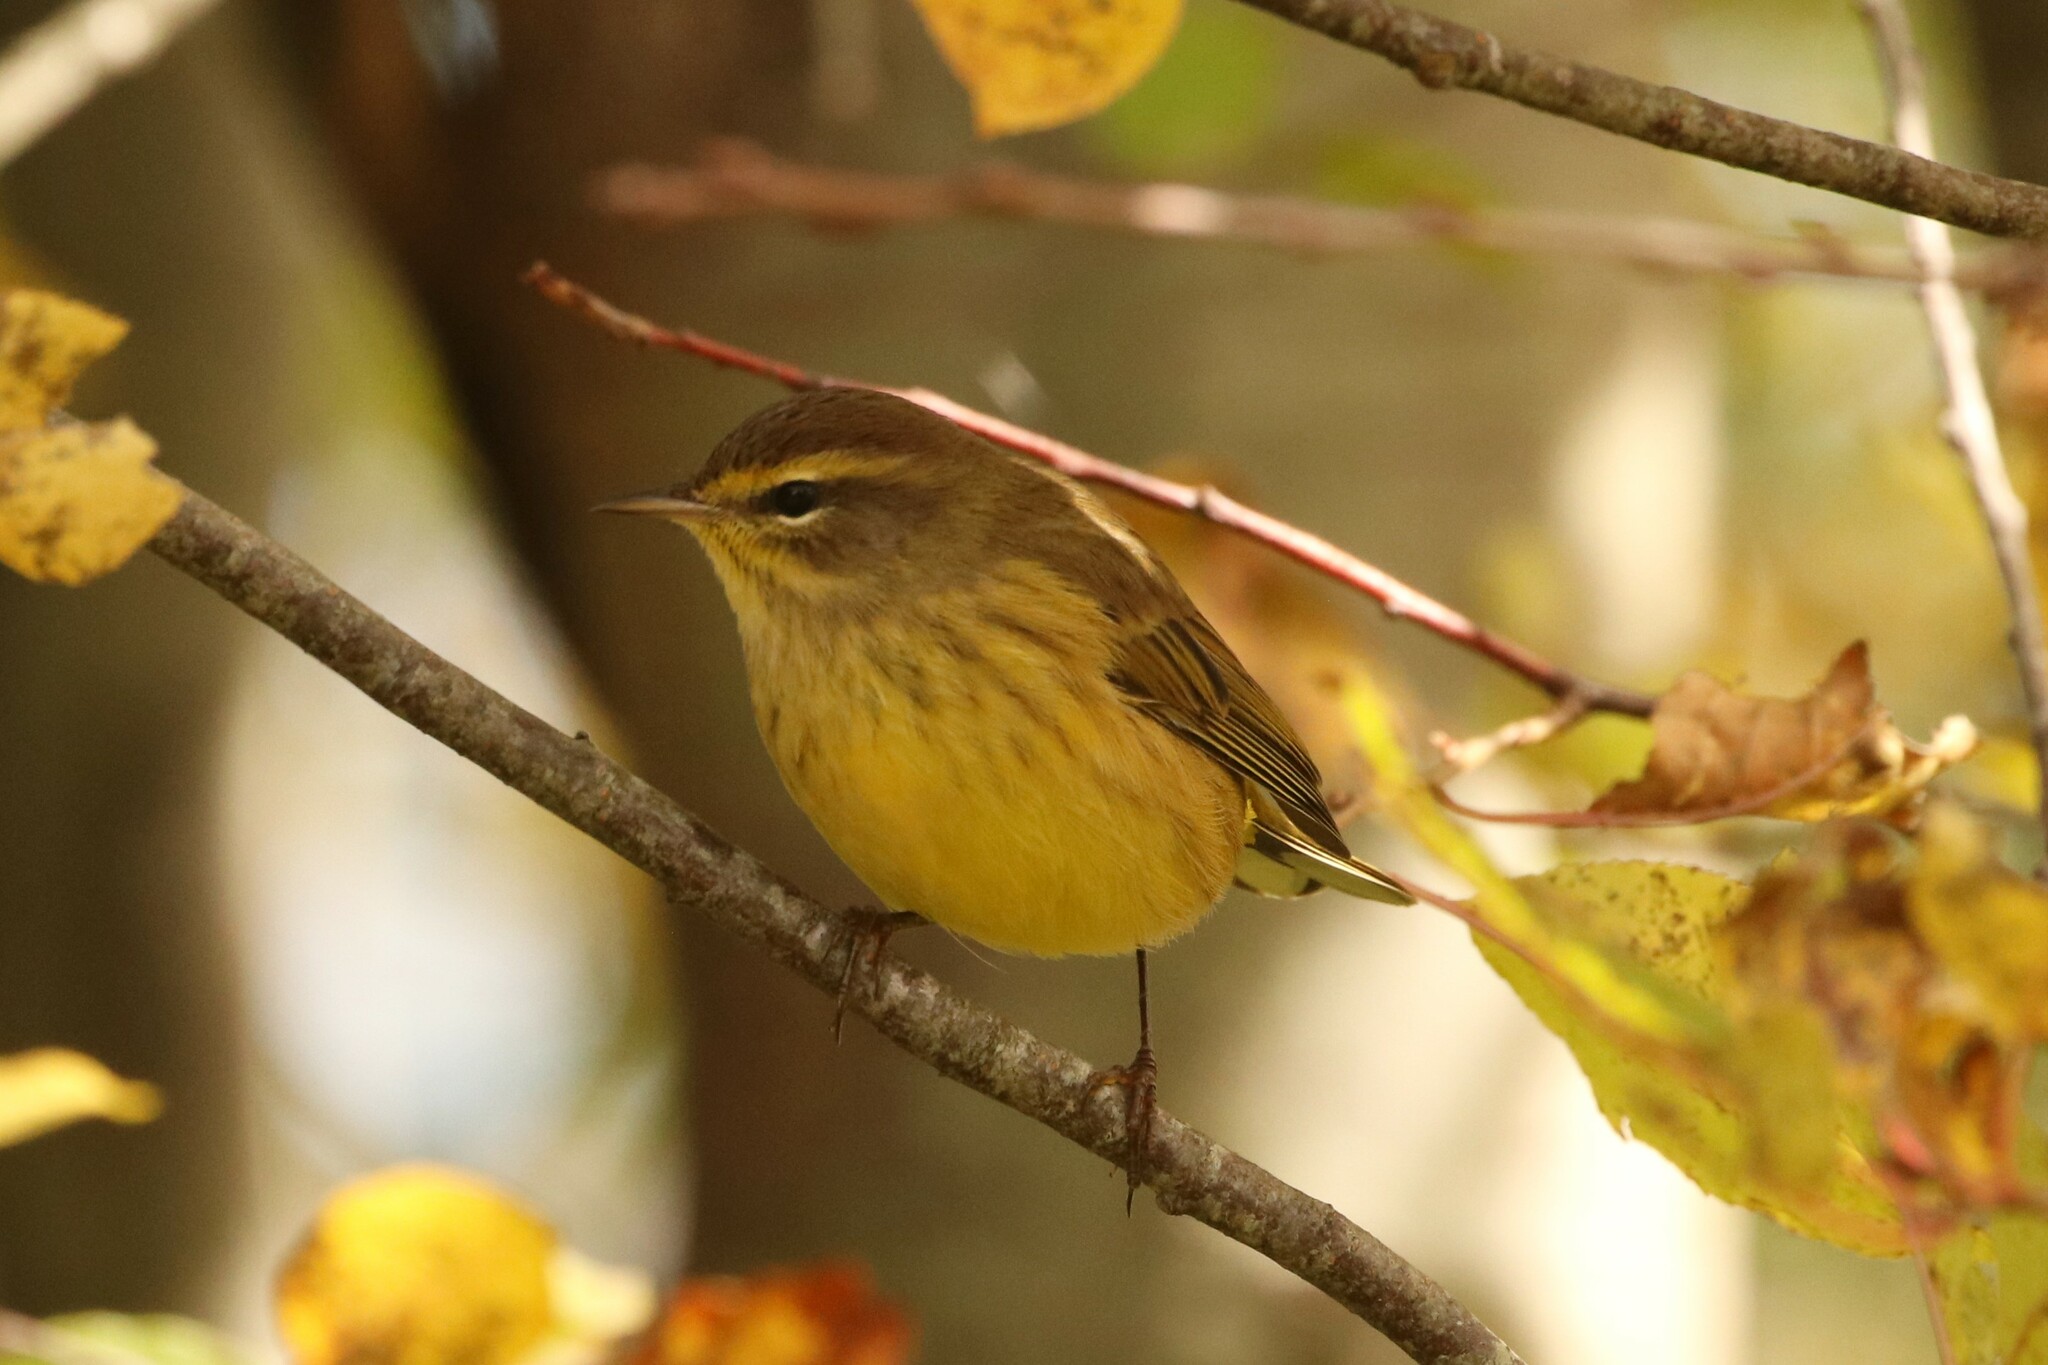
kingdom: Animalia
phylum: Chordata
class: Aves
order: Passeriformes
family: Parulidae
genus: Setophaga
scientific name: Setophaga palmarum
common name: Palm warbler
